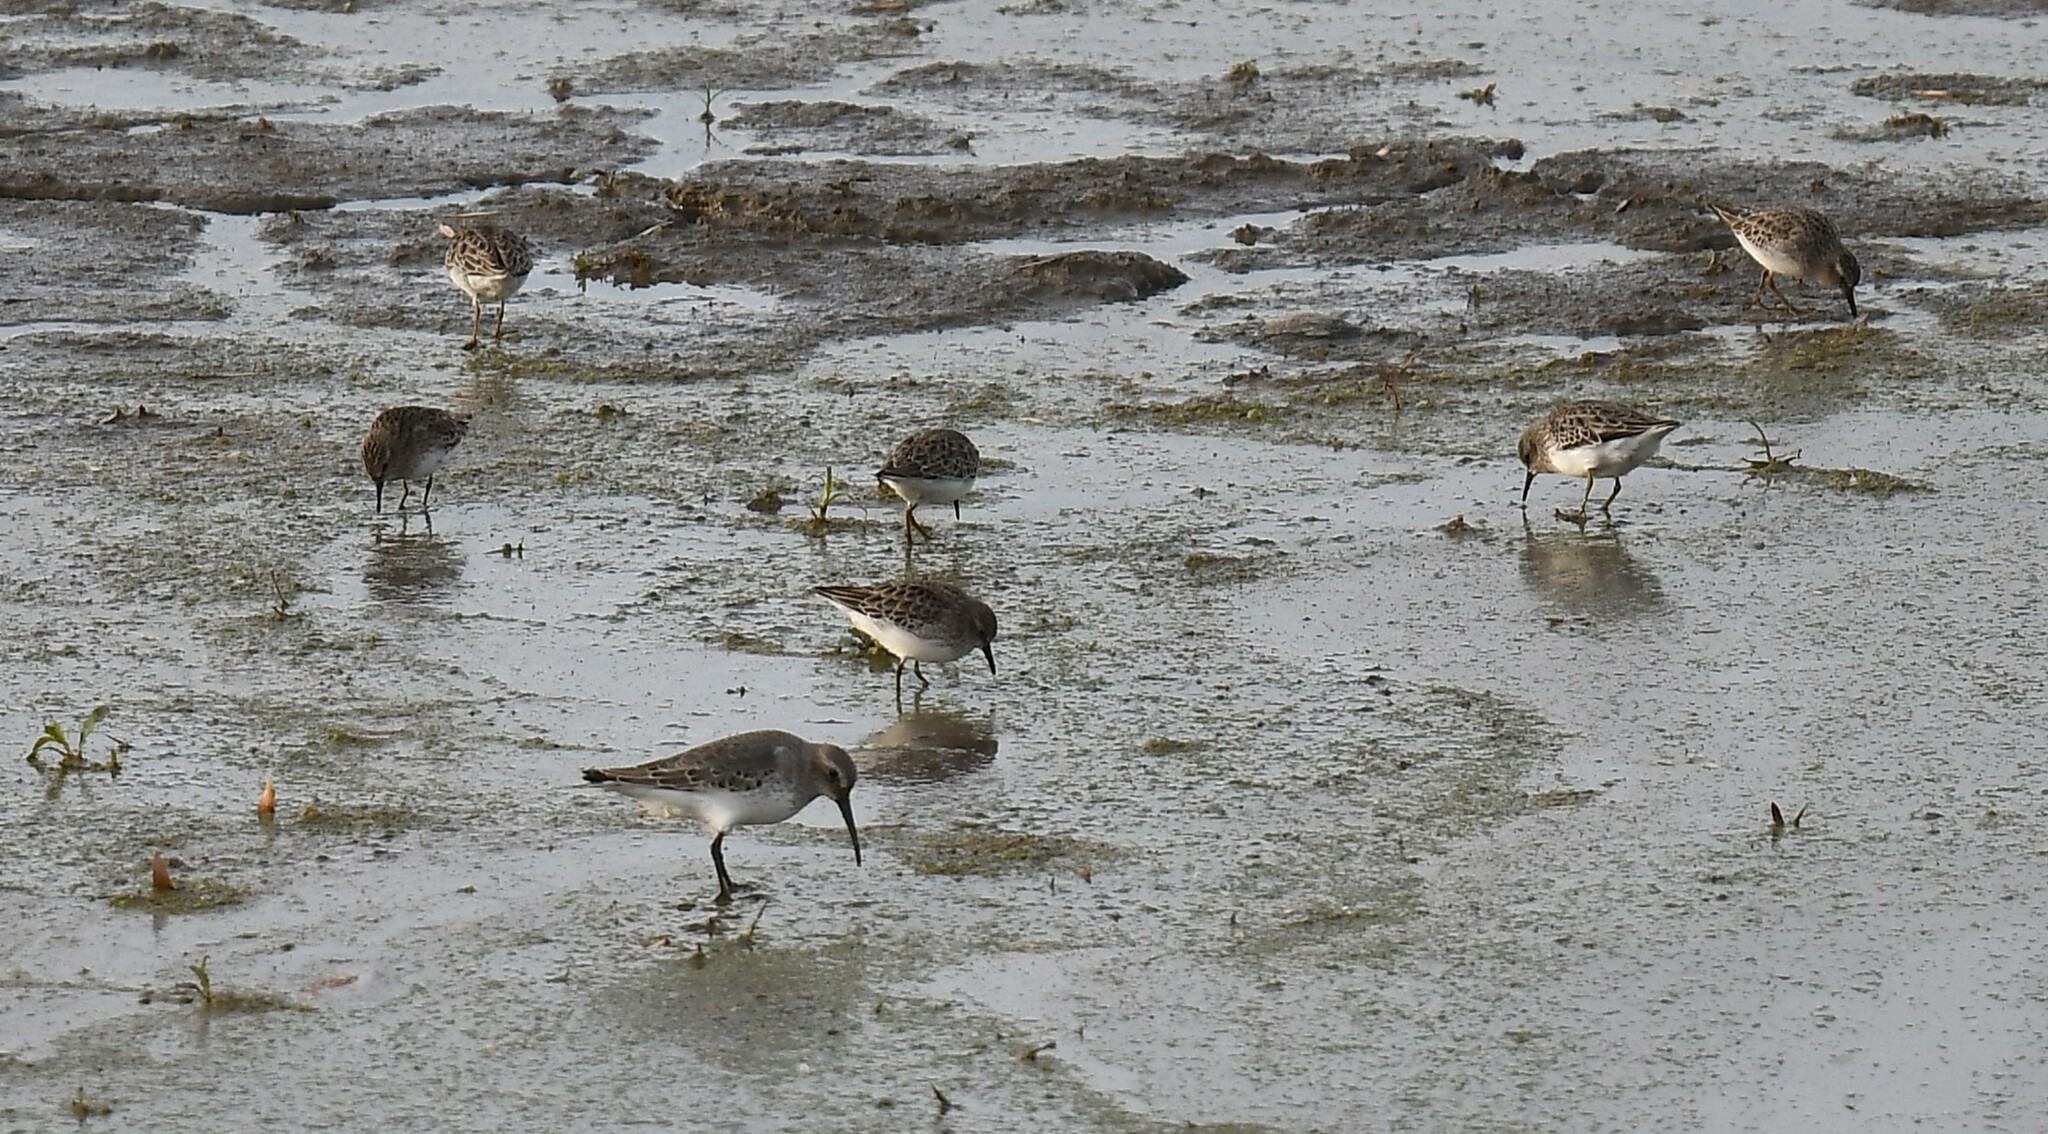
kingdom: Animalia
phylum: Chordata
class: Aves
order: Charadriiformes
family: Scolopacidae
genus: Calidris
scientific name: Calidris alpina
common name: Dunlin
